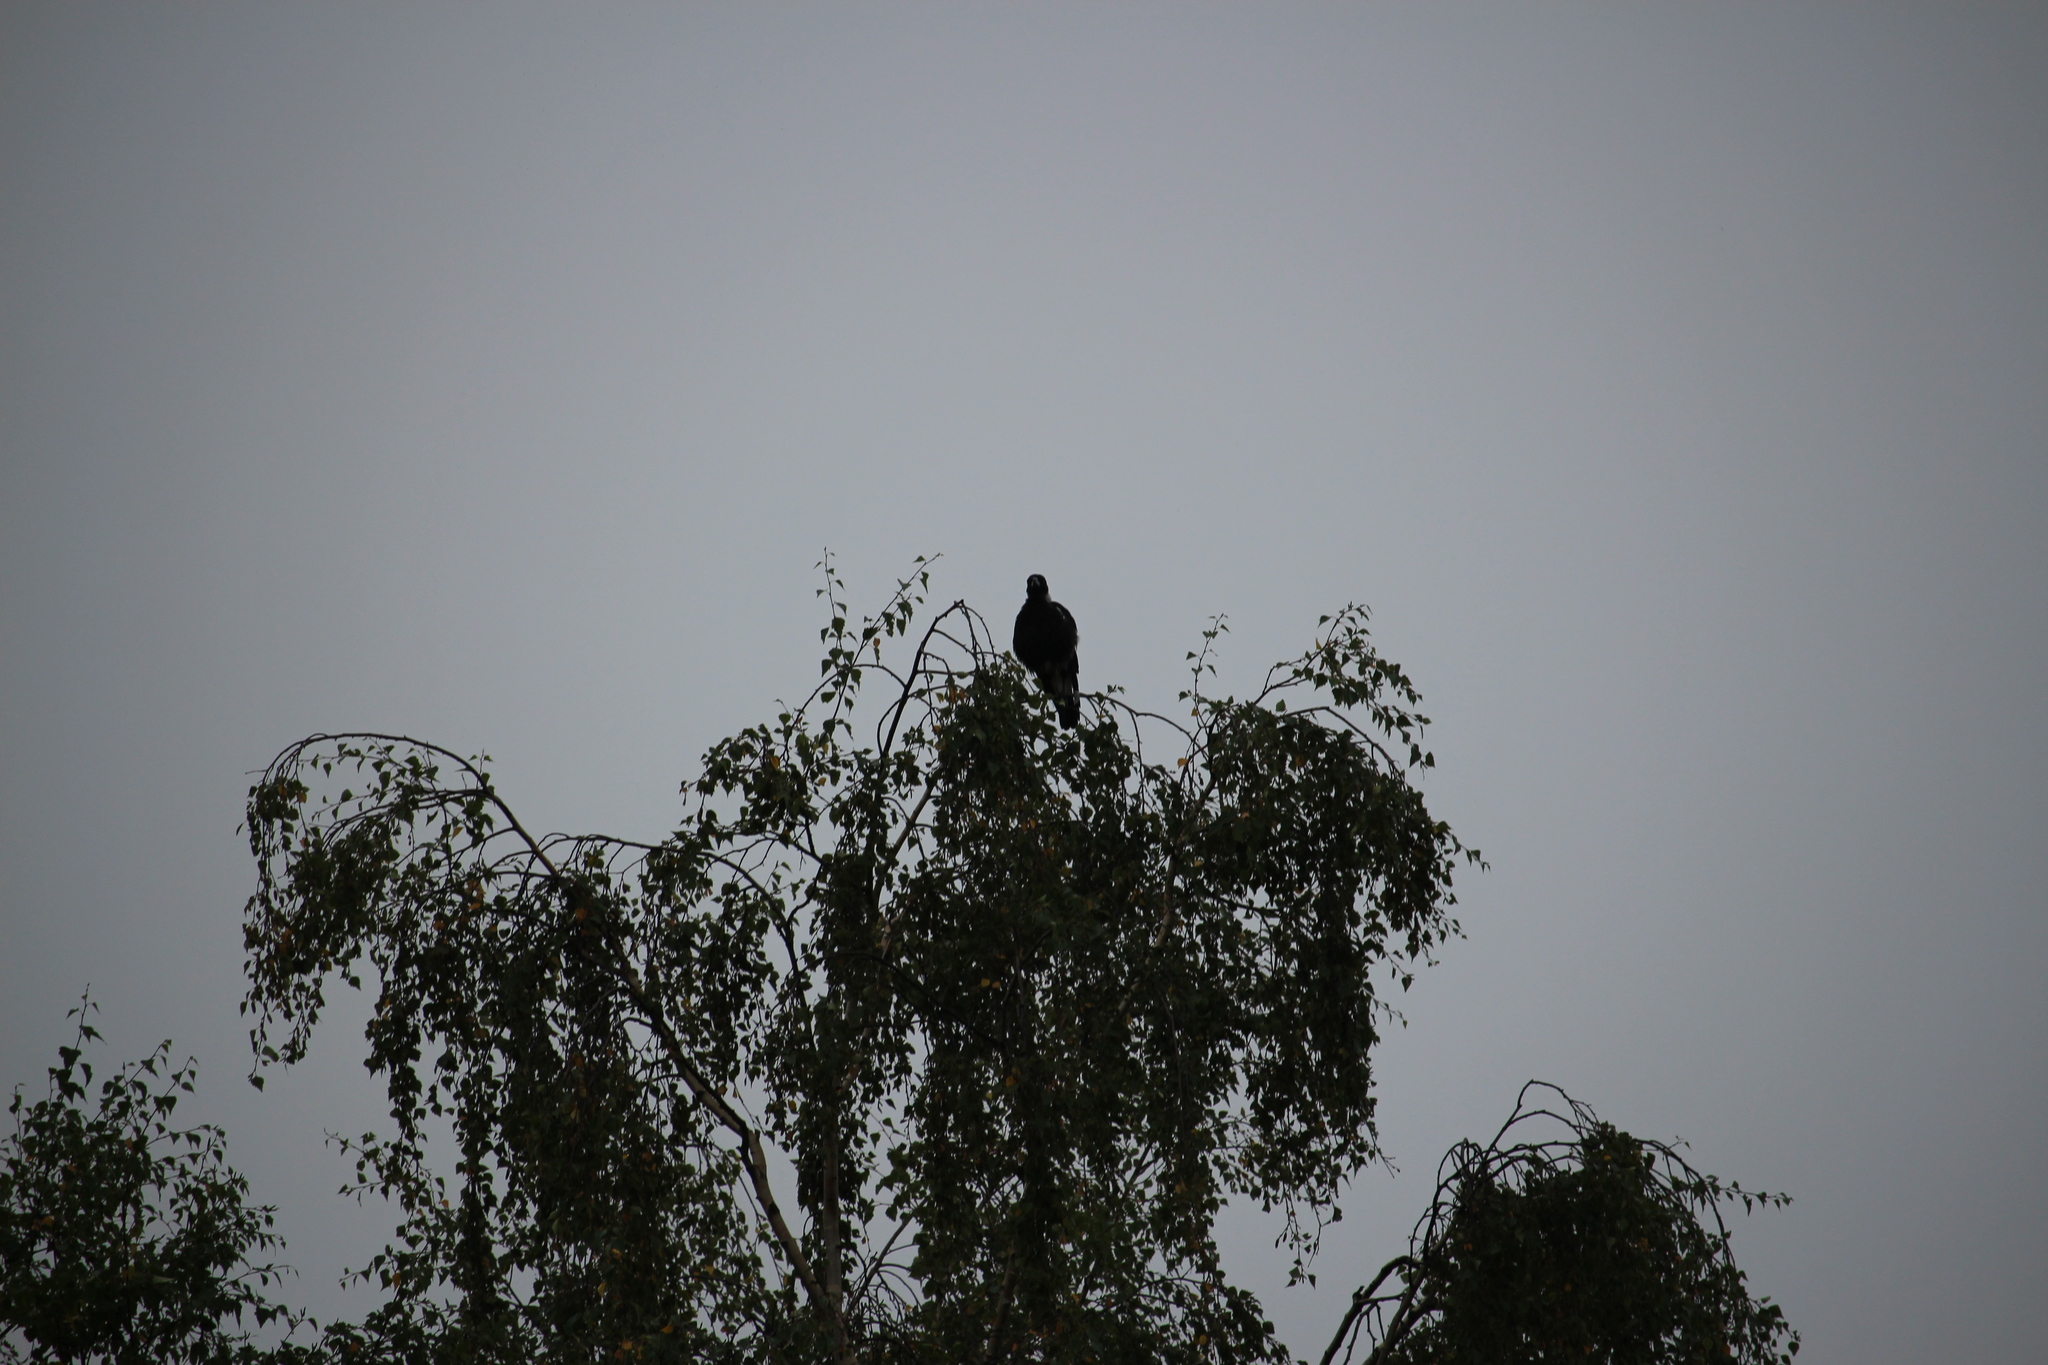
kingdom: Animalia
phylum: Chordata
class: Aves
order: Passeriformes
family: Cracticidae
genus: Gymnorhina
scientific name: Gymnorhina tibicen
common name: Australian magpie
